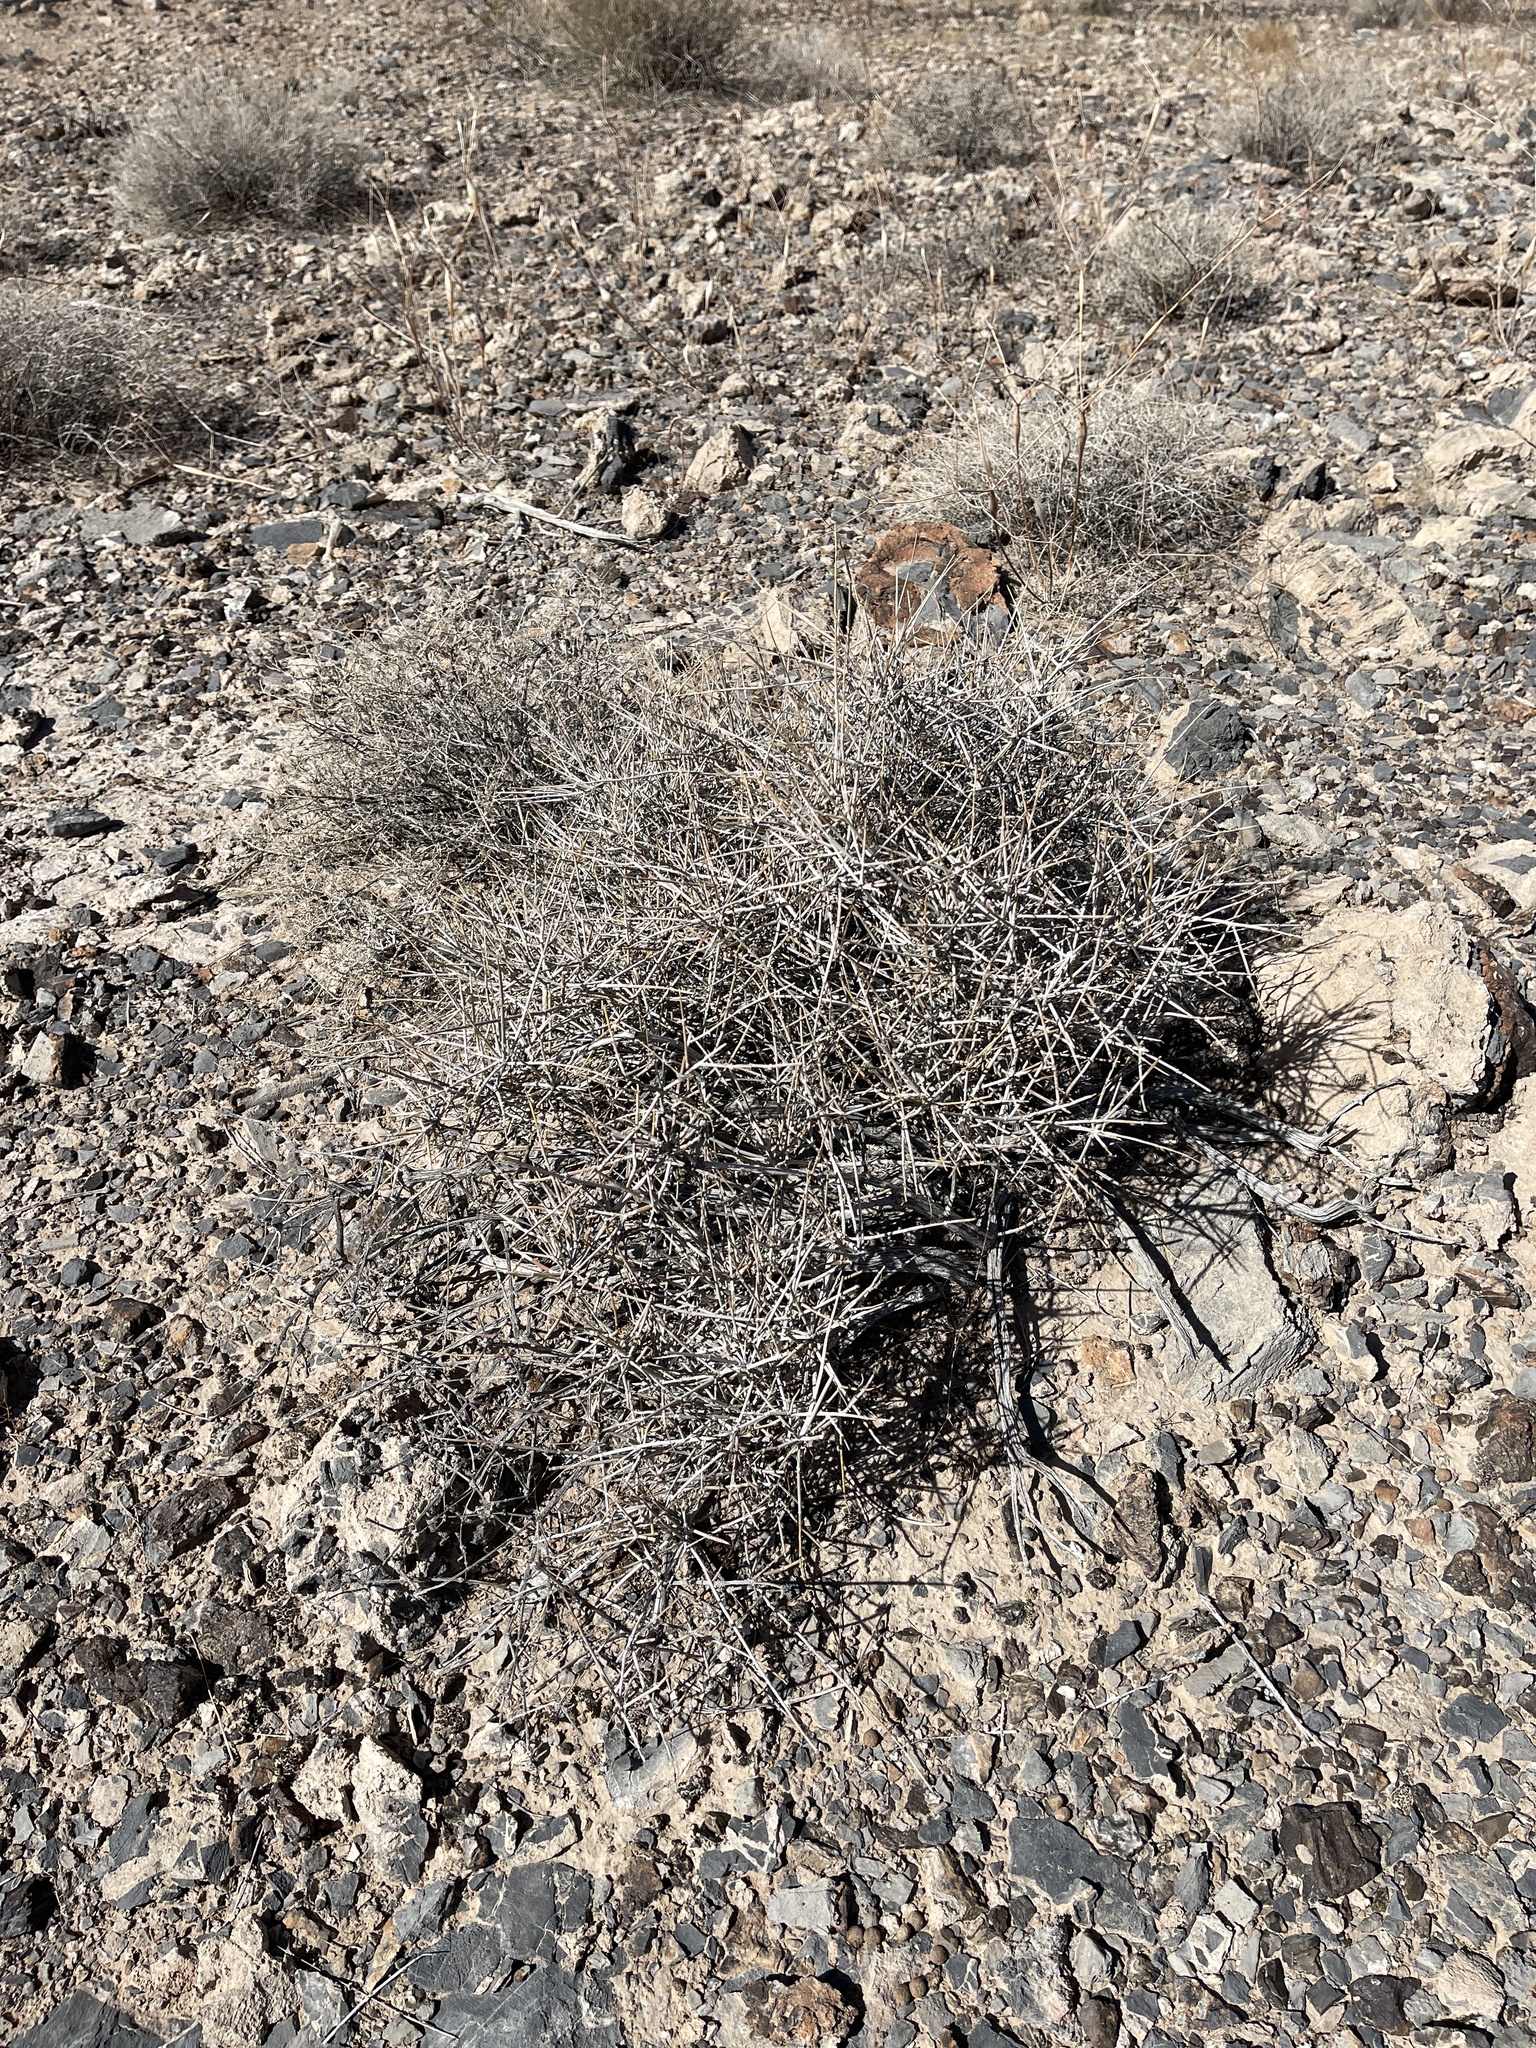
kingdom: Plantae
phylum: Tracheophyta
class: Gnetopsida
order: Ephedrales
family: Ephedraceae
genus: Ephedra
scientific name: Ephedra nevadensis
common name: Gray ephedra
